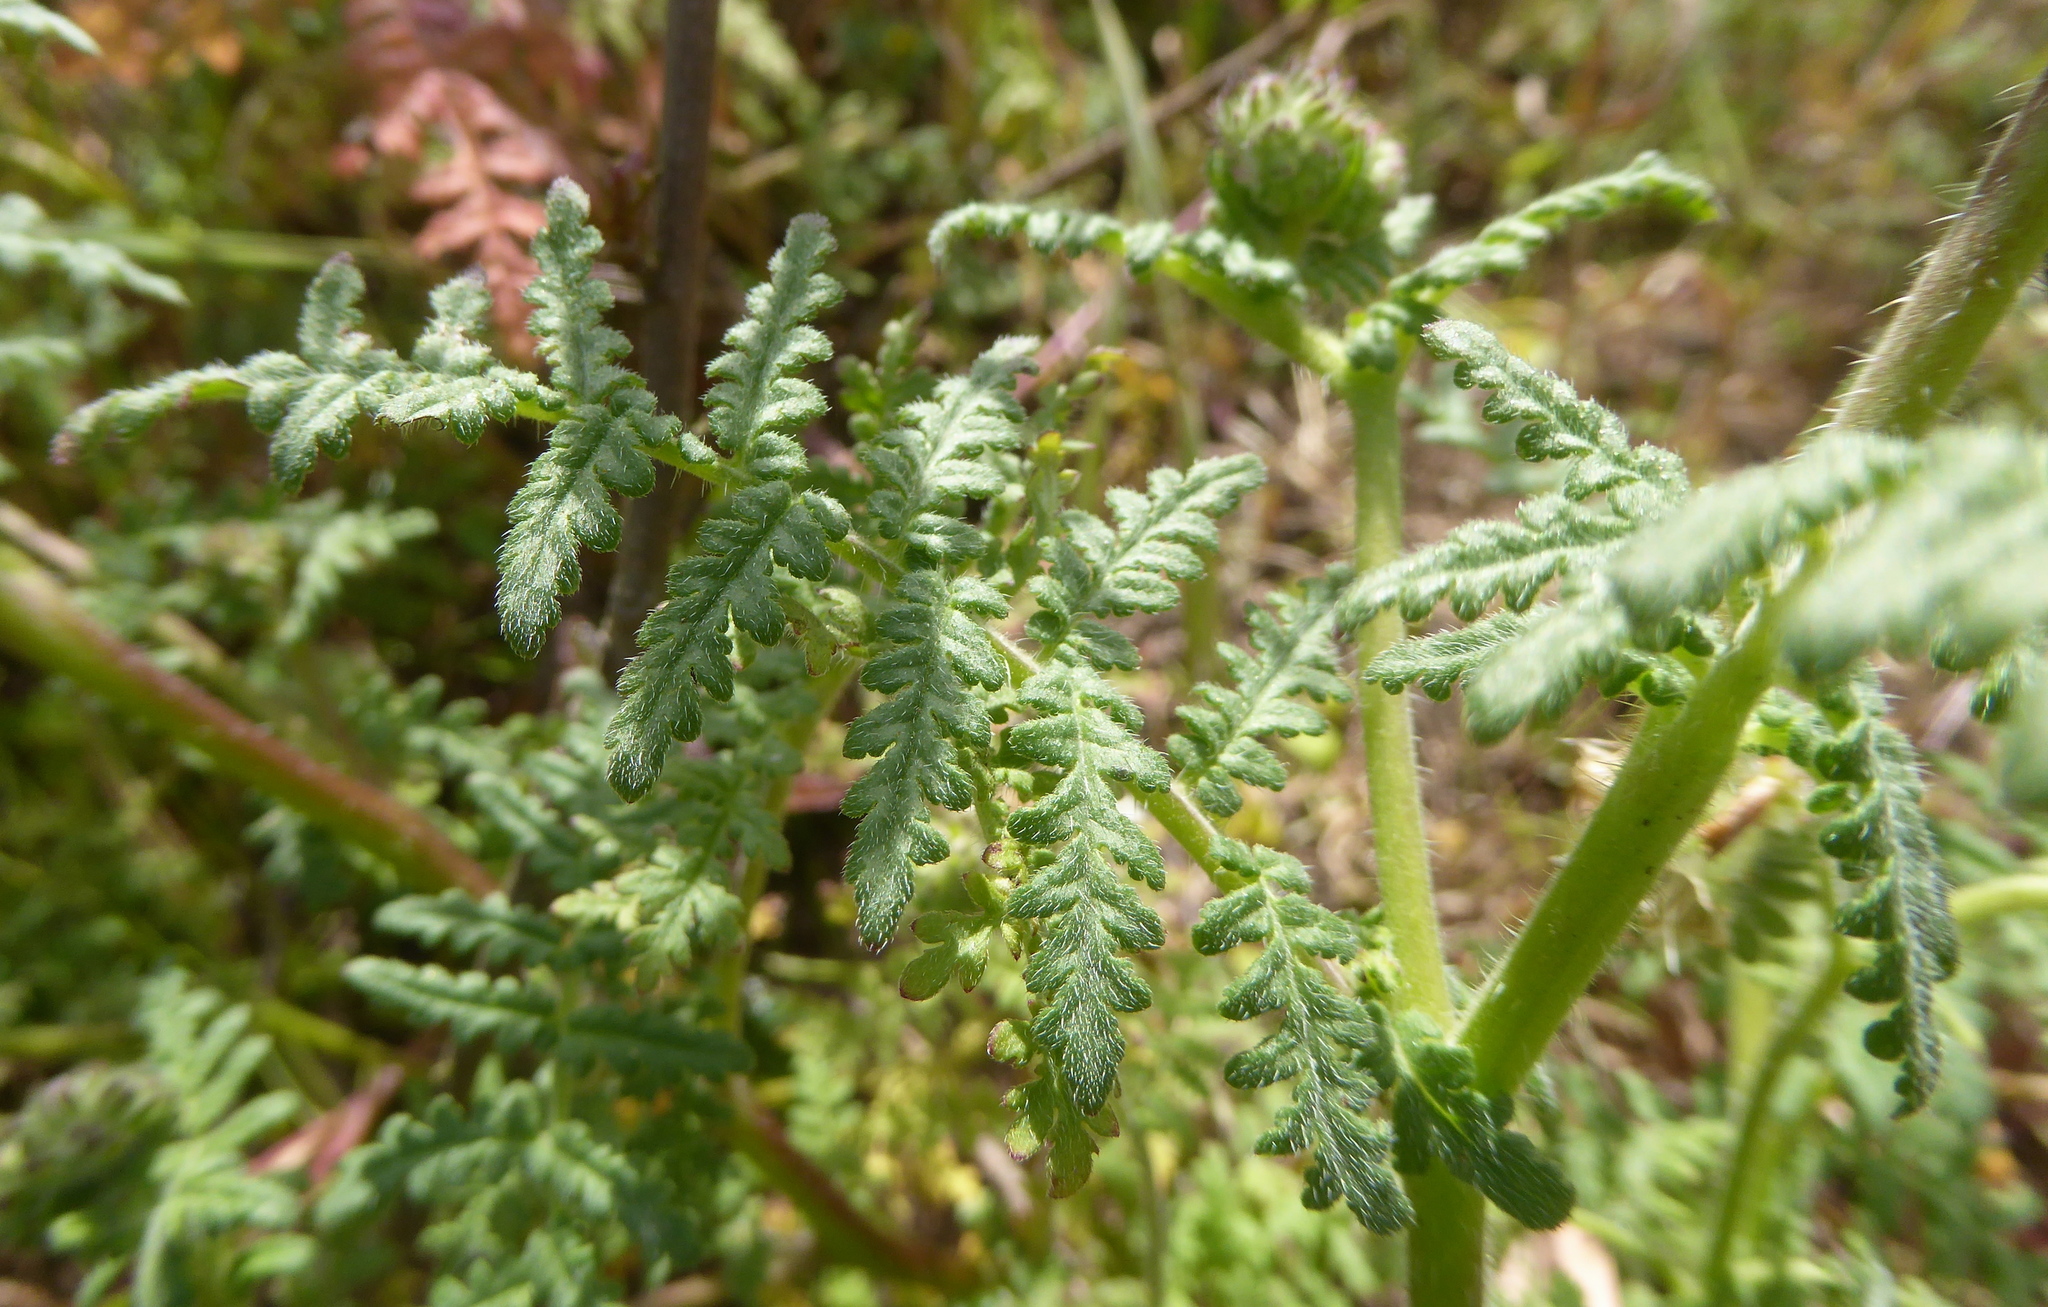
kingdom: Plantae
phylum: Tracheophyta
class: Magnoliopsida
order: Boraginales
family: Hydrophyllaceae
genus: Phacelia
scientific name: Phacelia distans
